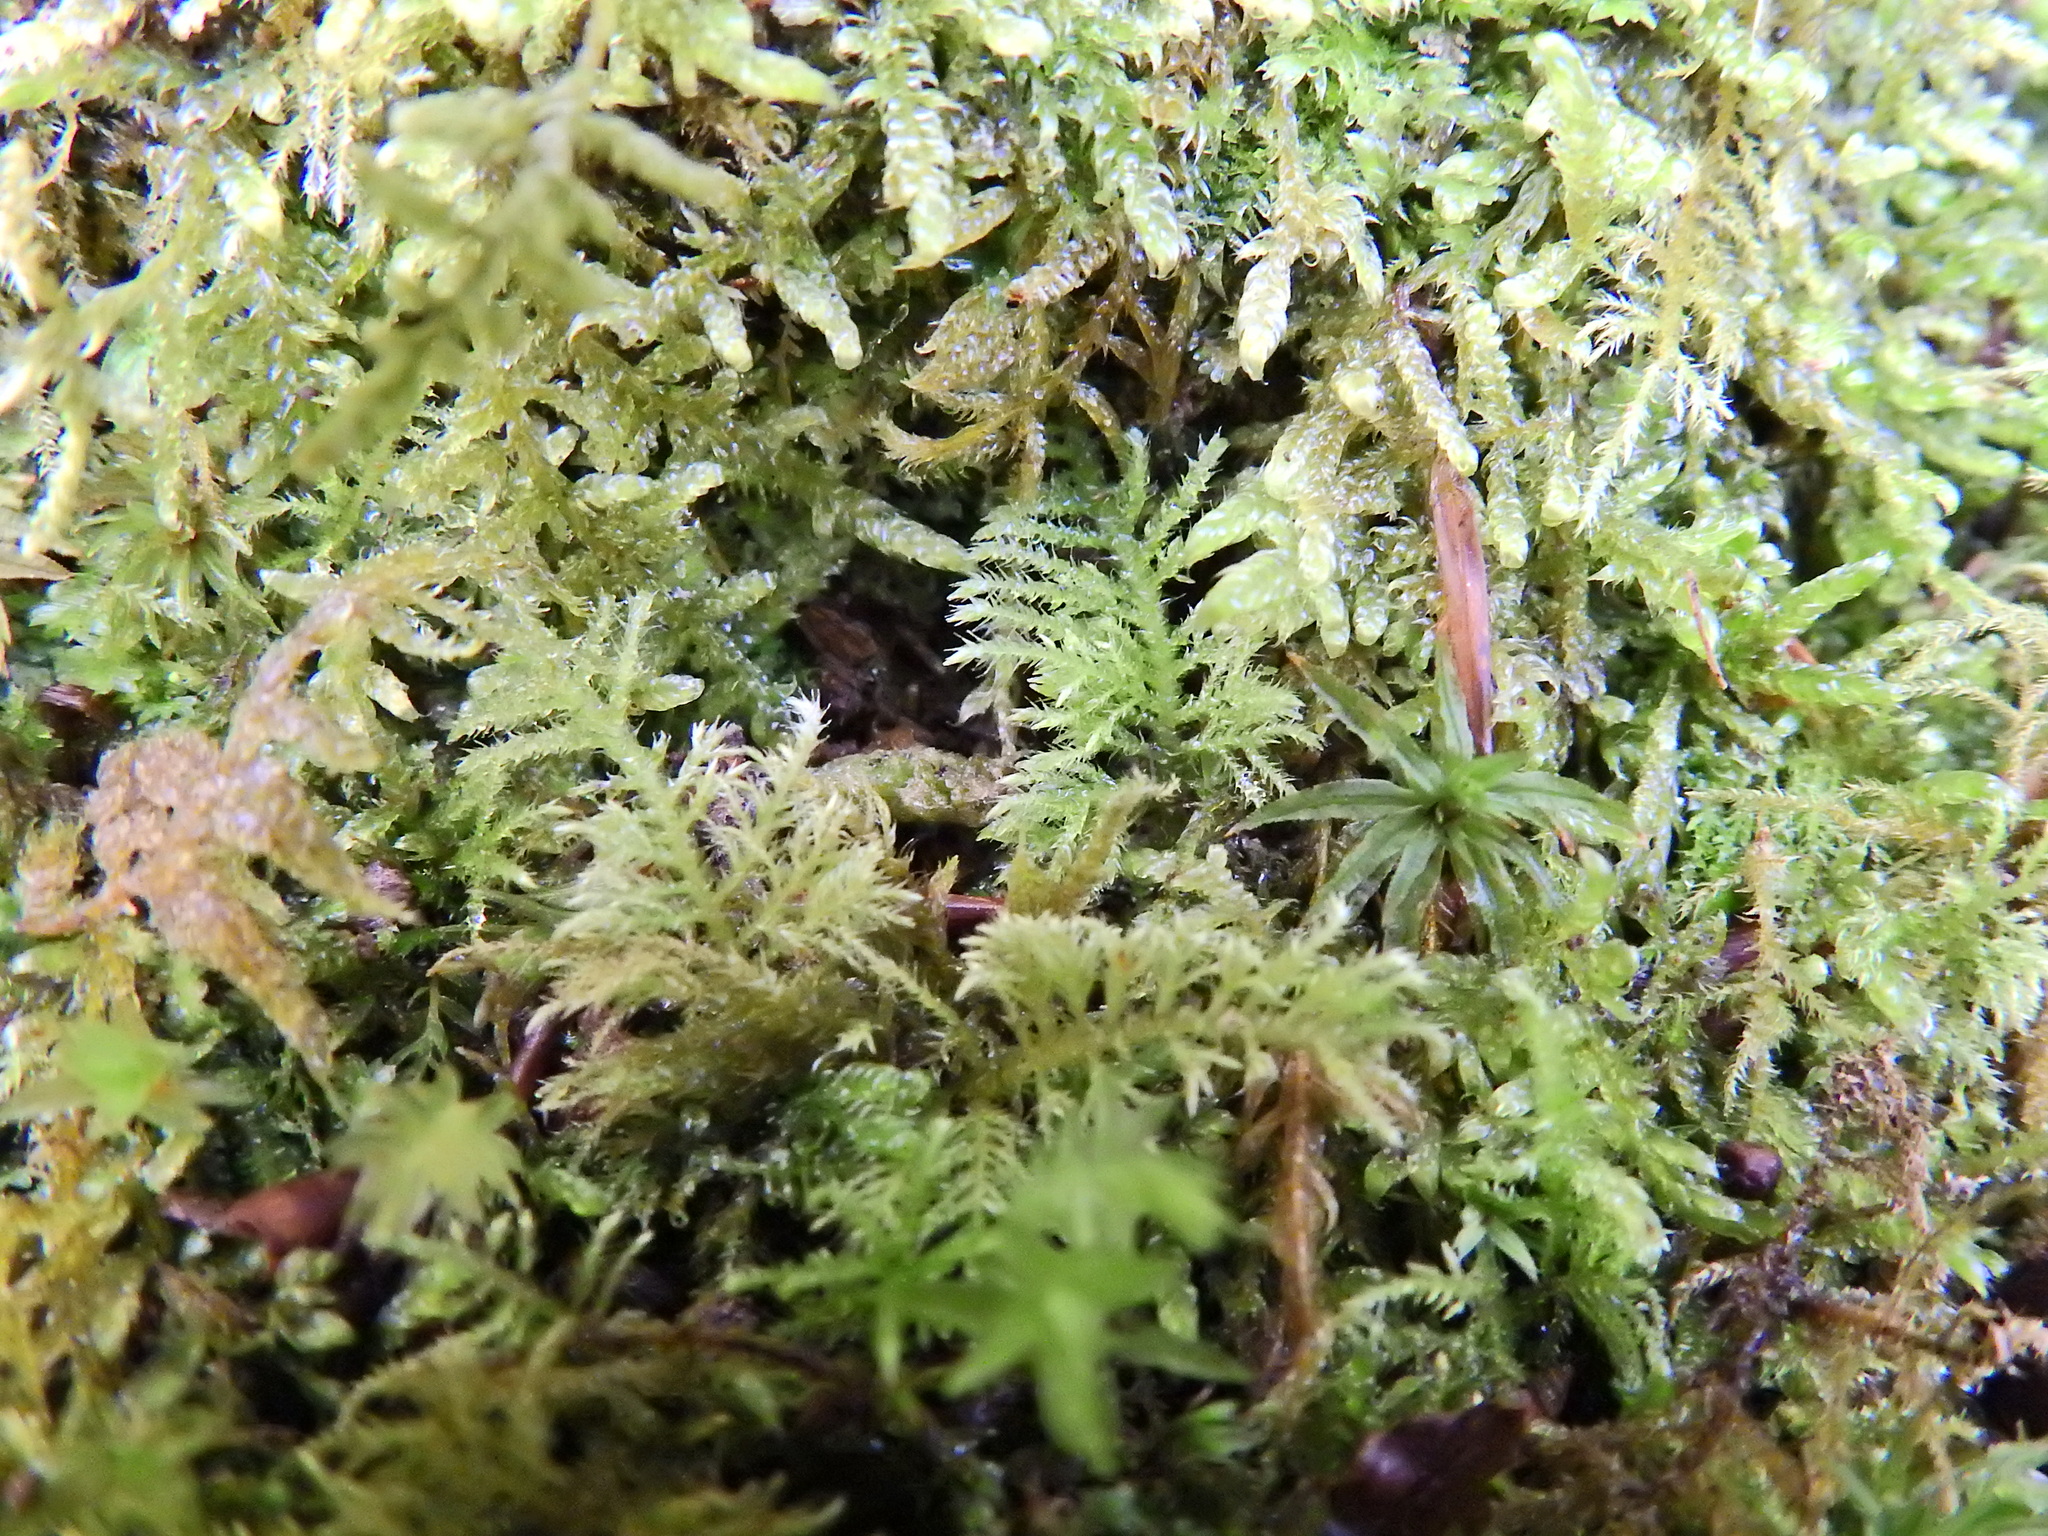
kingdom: Plantae
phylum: Bryophyta
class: Bryopsida
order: Hypnales
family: Brachytheciaceae
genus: Kindbergia
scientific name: Kindbergia praelonga
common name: Slender beaked moss
